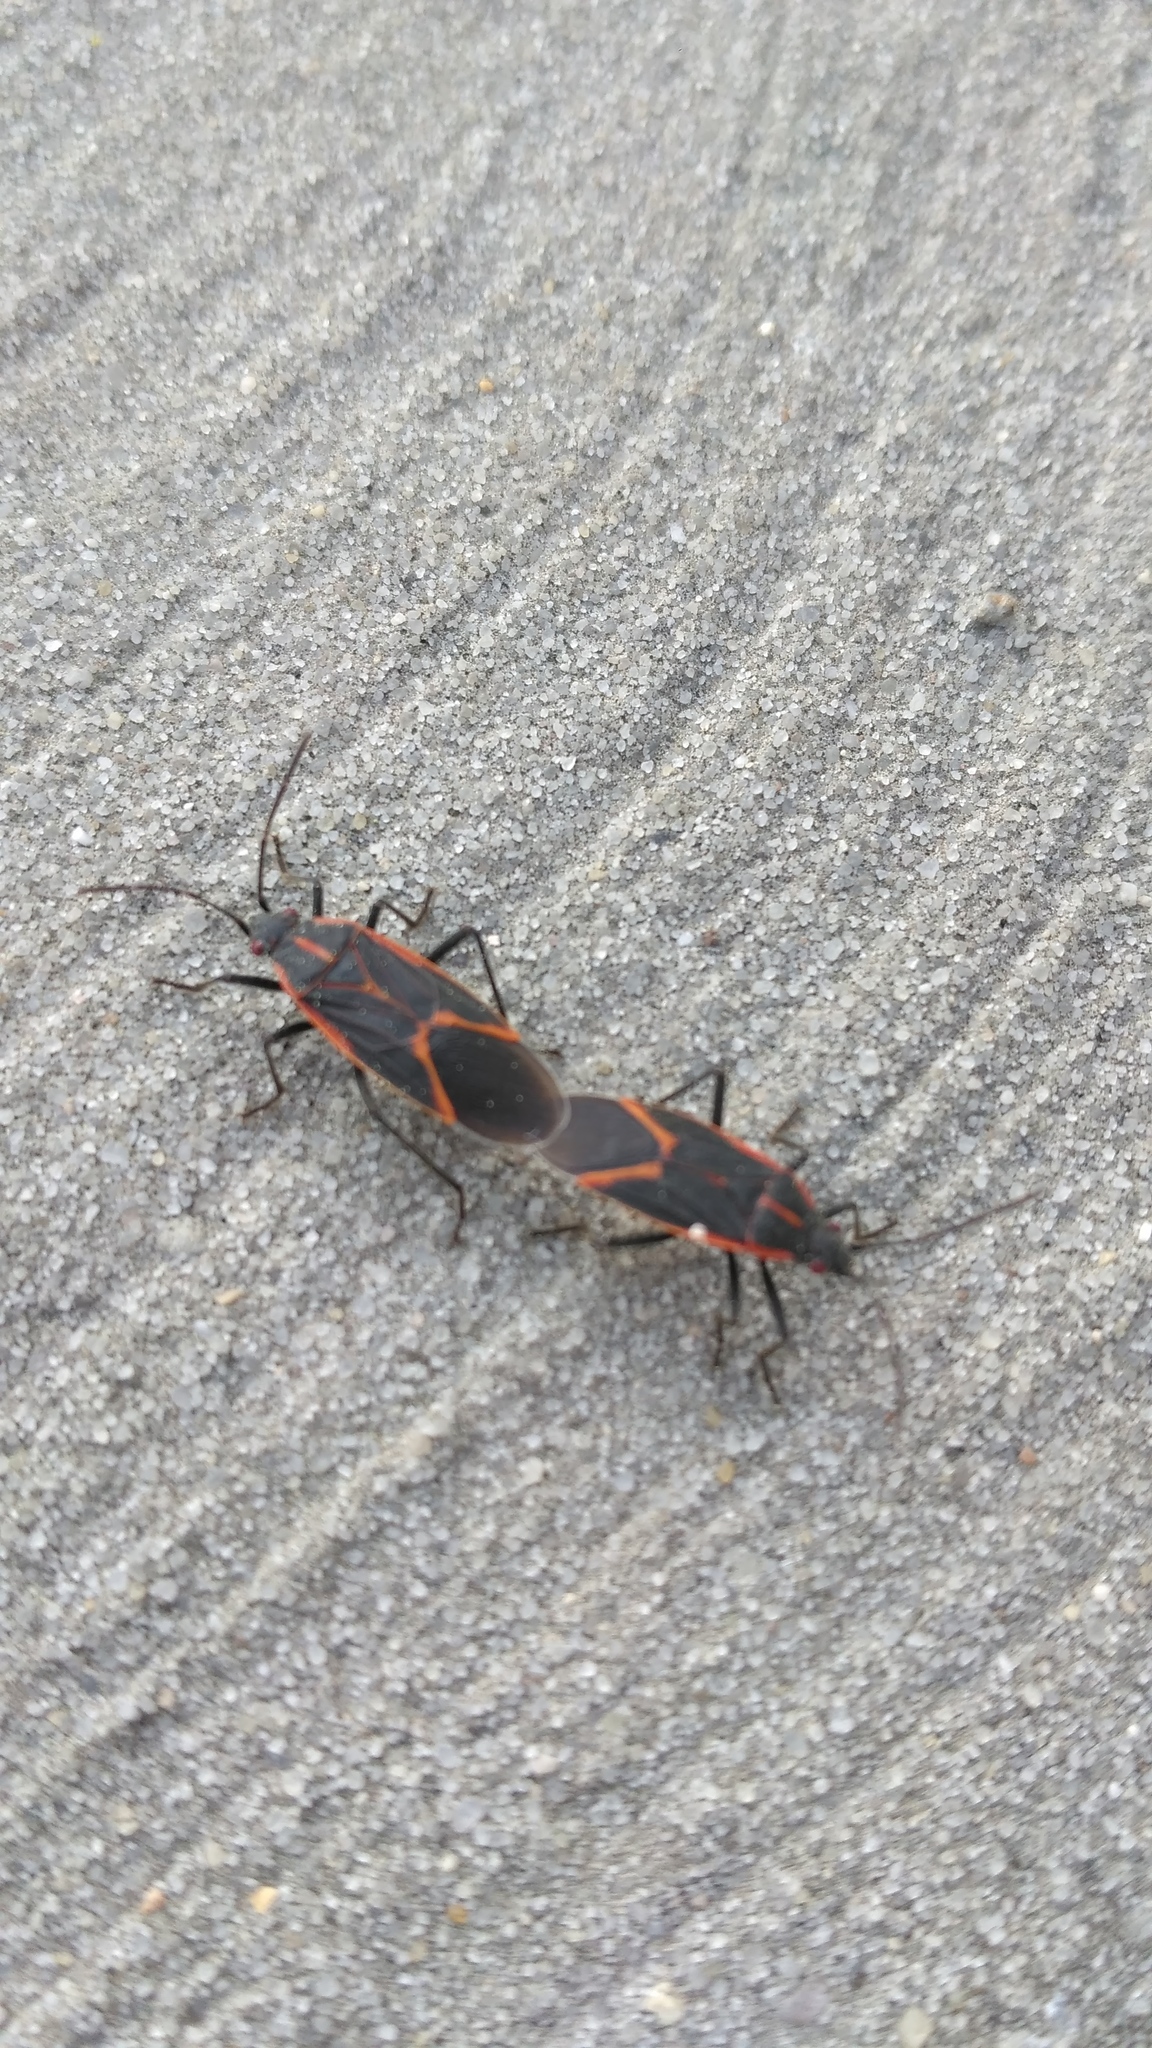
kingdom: Animalia
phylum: Arthropoda
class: Insecta
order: Hemiptera
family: Rhopalidae
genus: Boisea
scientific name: Boisea trivittata
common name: Boxelder bug
